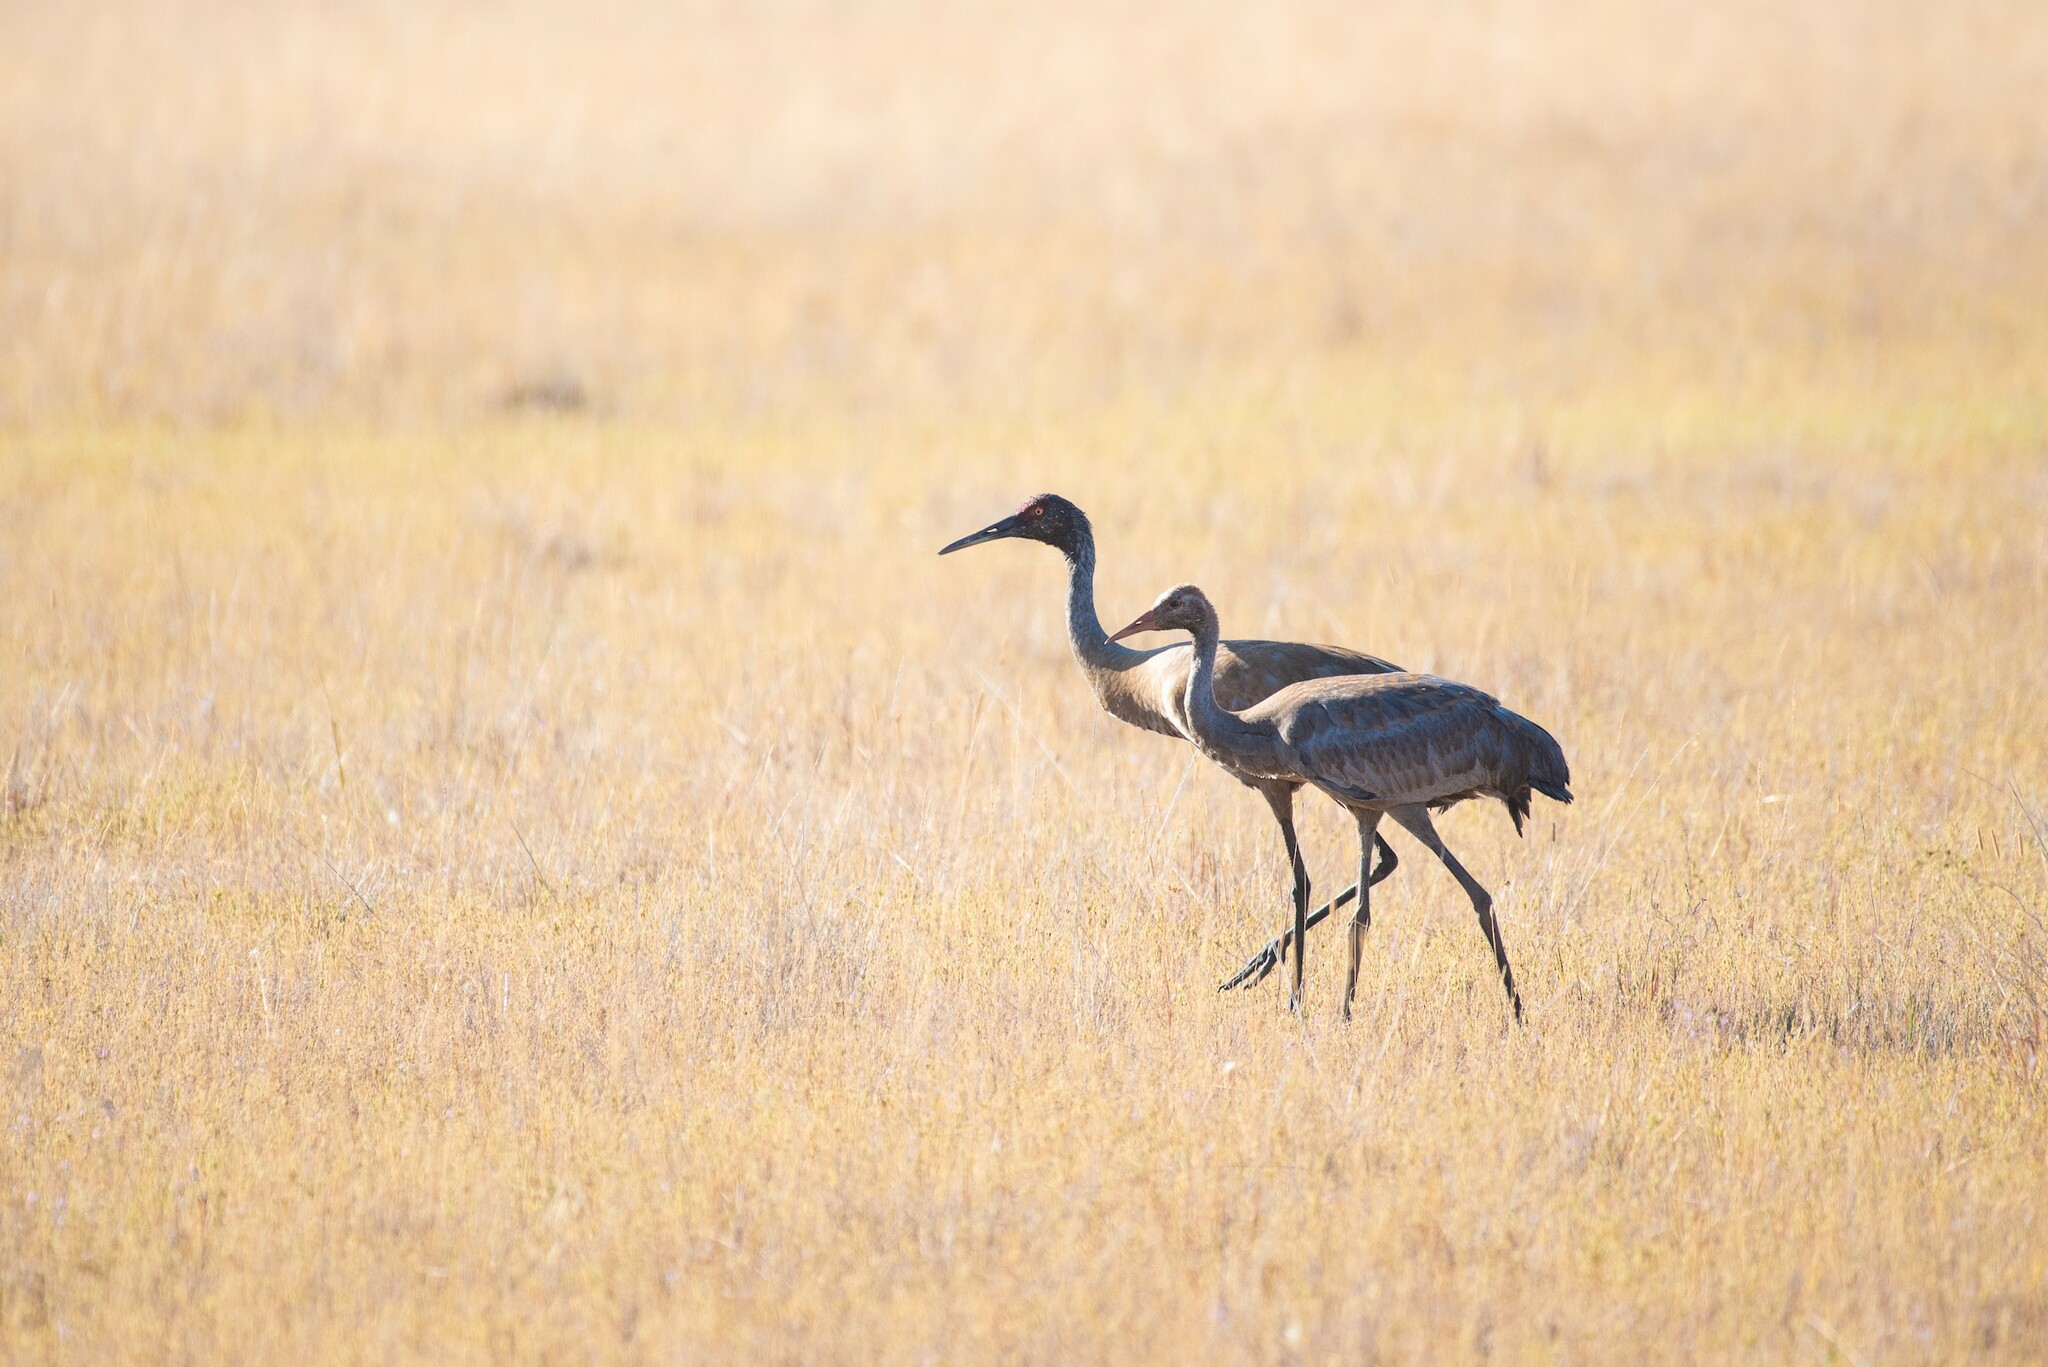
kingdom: Animalia
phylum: Chordata
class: Aves
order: Gruiformes
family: Gruidae
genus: Grus
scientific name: Grus canadensis
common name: Sandhill crane
